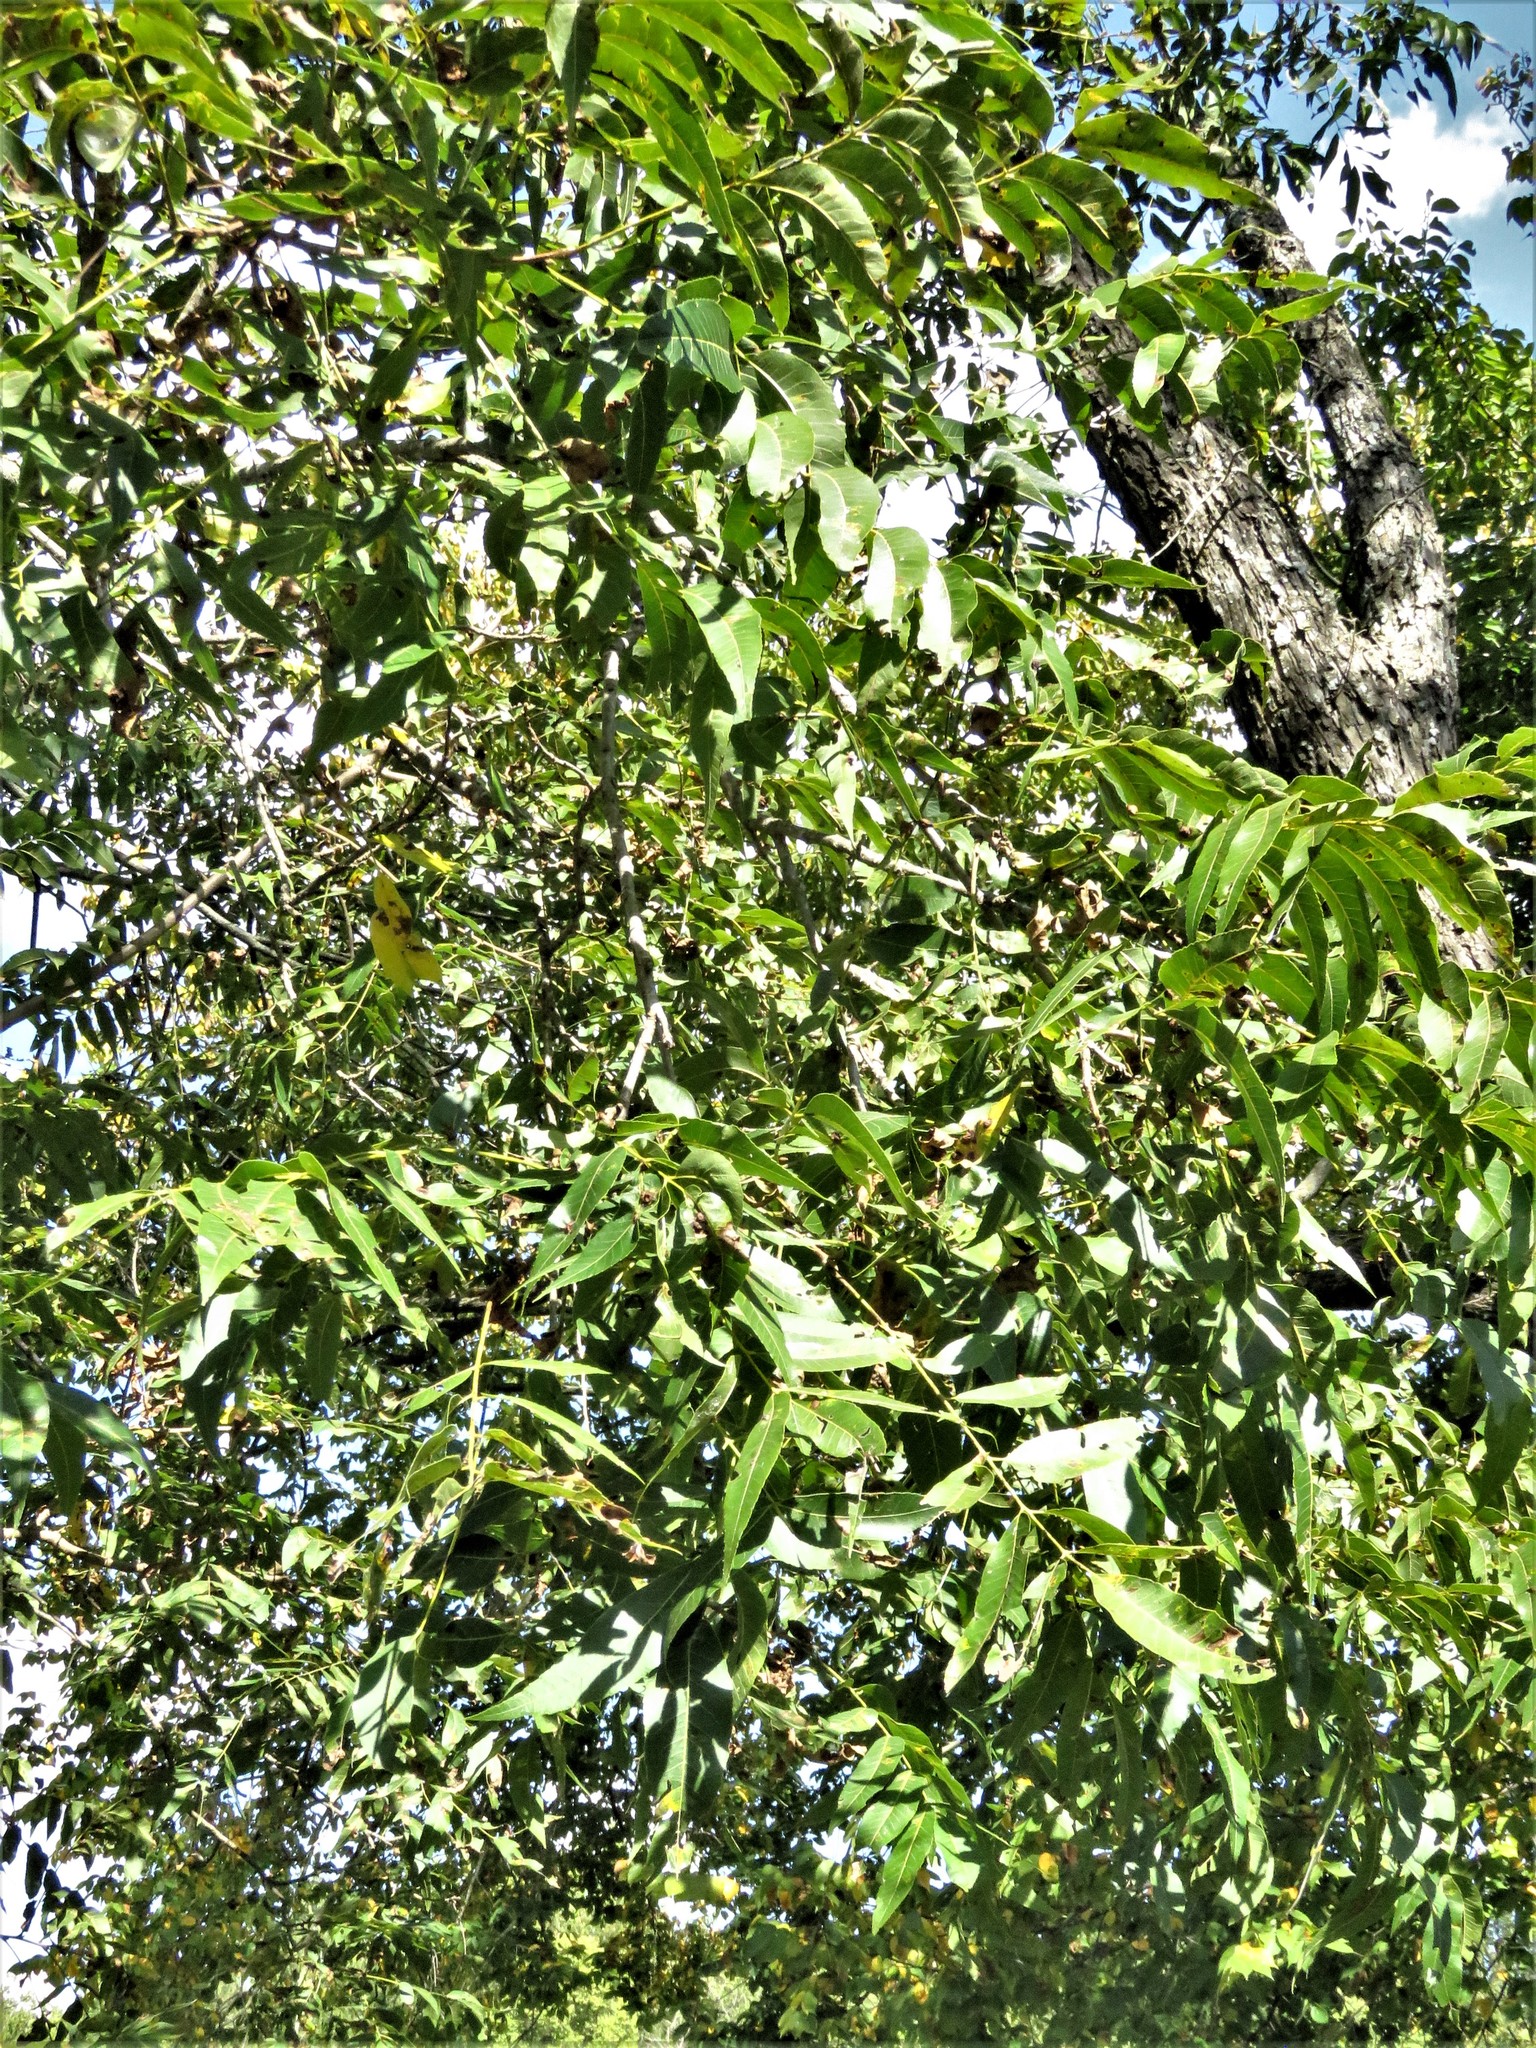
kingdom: Plantae
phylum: Tracheophyta
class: Magnoliopsida
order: Fagales
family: Juglandaceae
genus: Carya
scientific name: Carya illinoinensis
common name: Pecan
